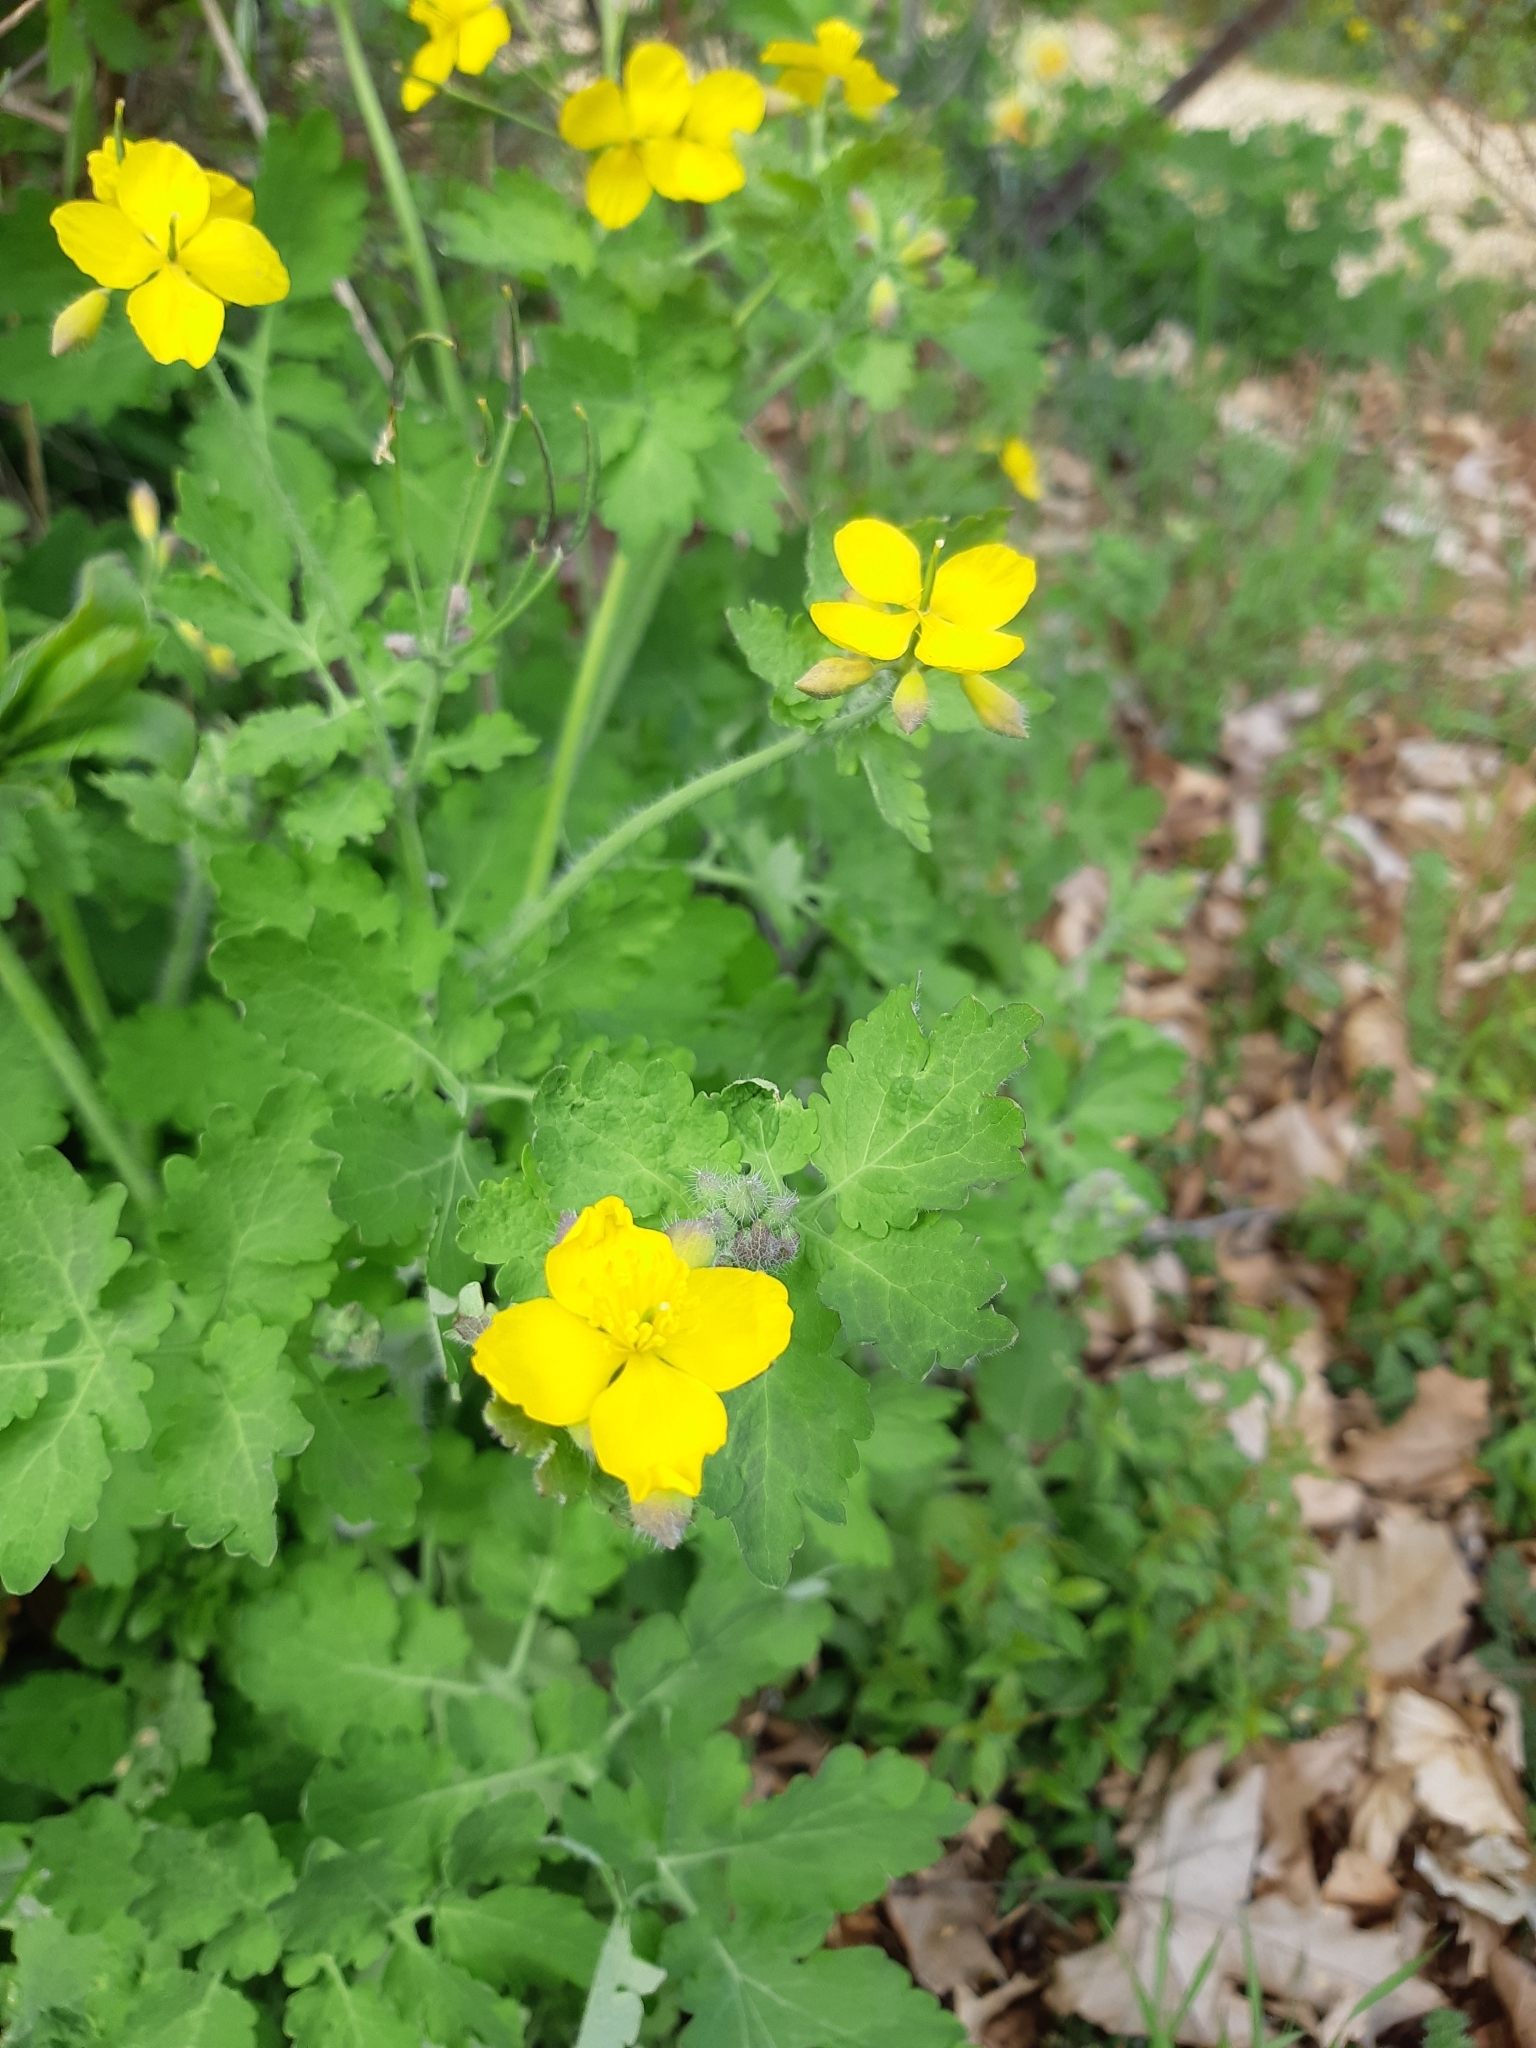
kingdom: Plantae
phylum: Tracheophyta
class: Magnoliopsida
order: Ranunculales
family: Papaveraceae
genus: Chelidonium
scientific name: Chelidonium majus
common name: Greater celandine
